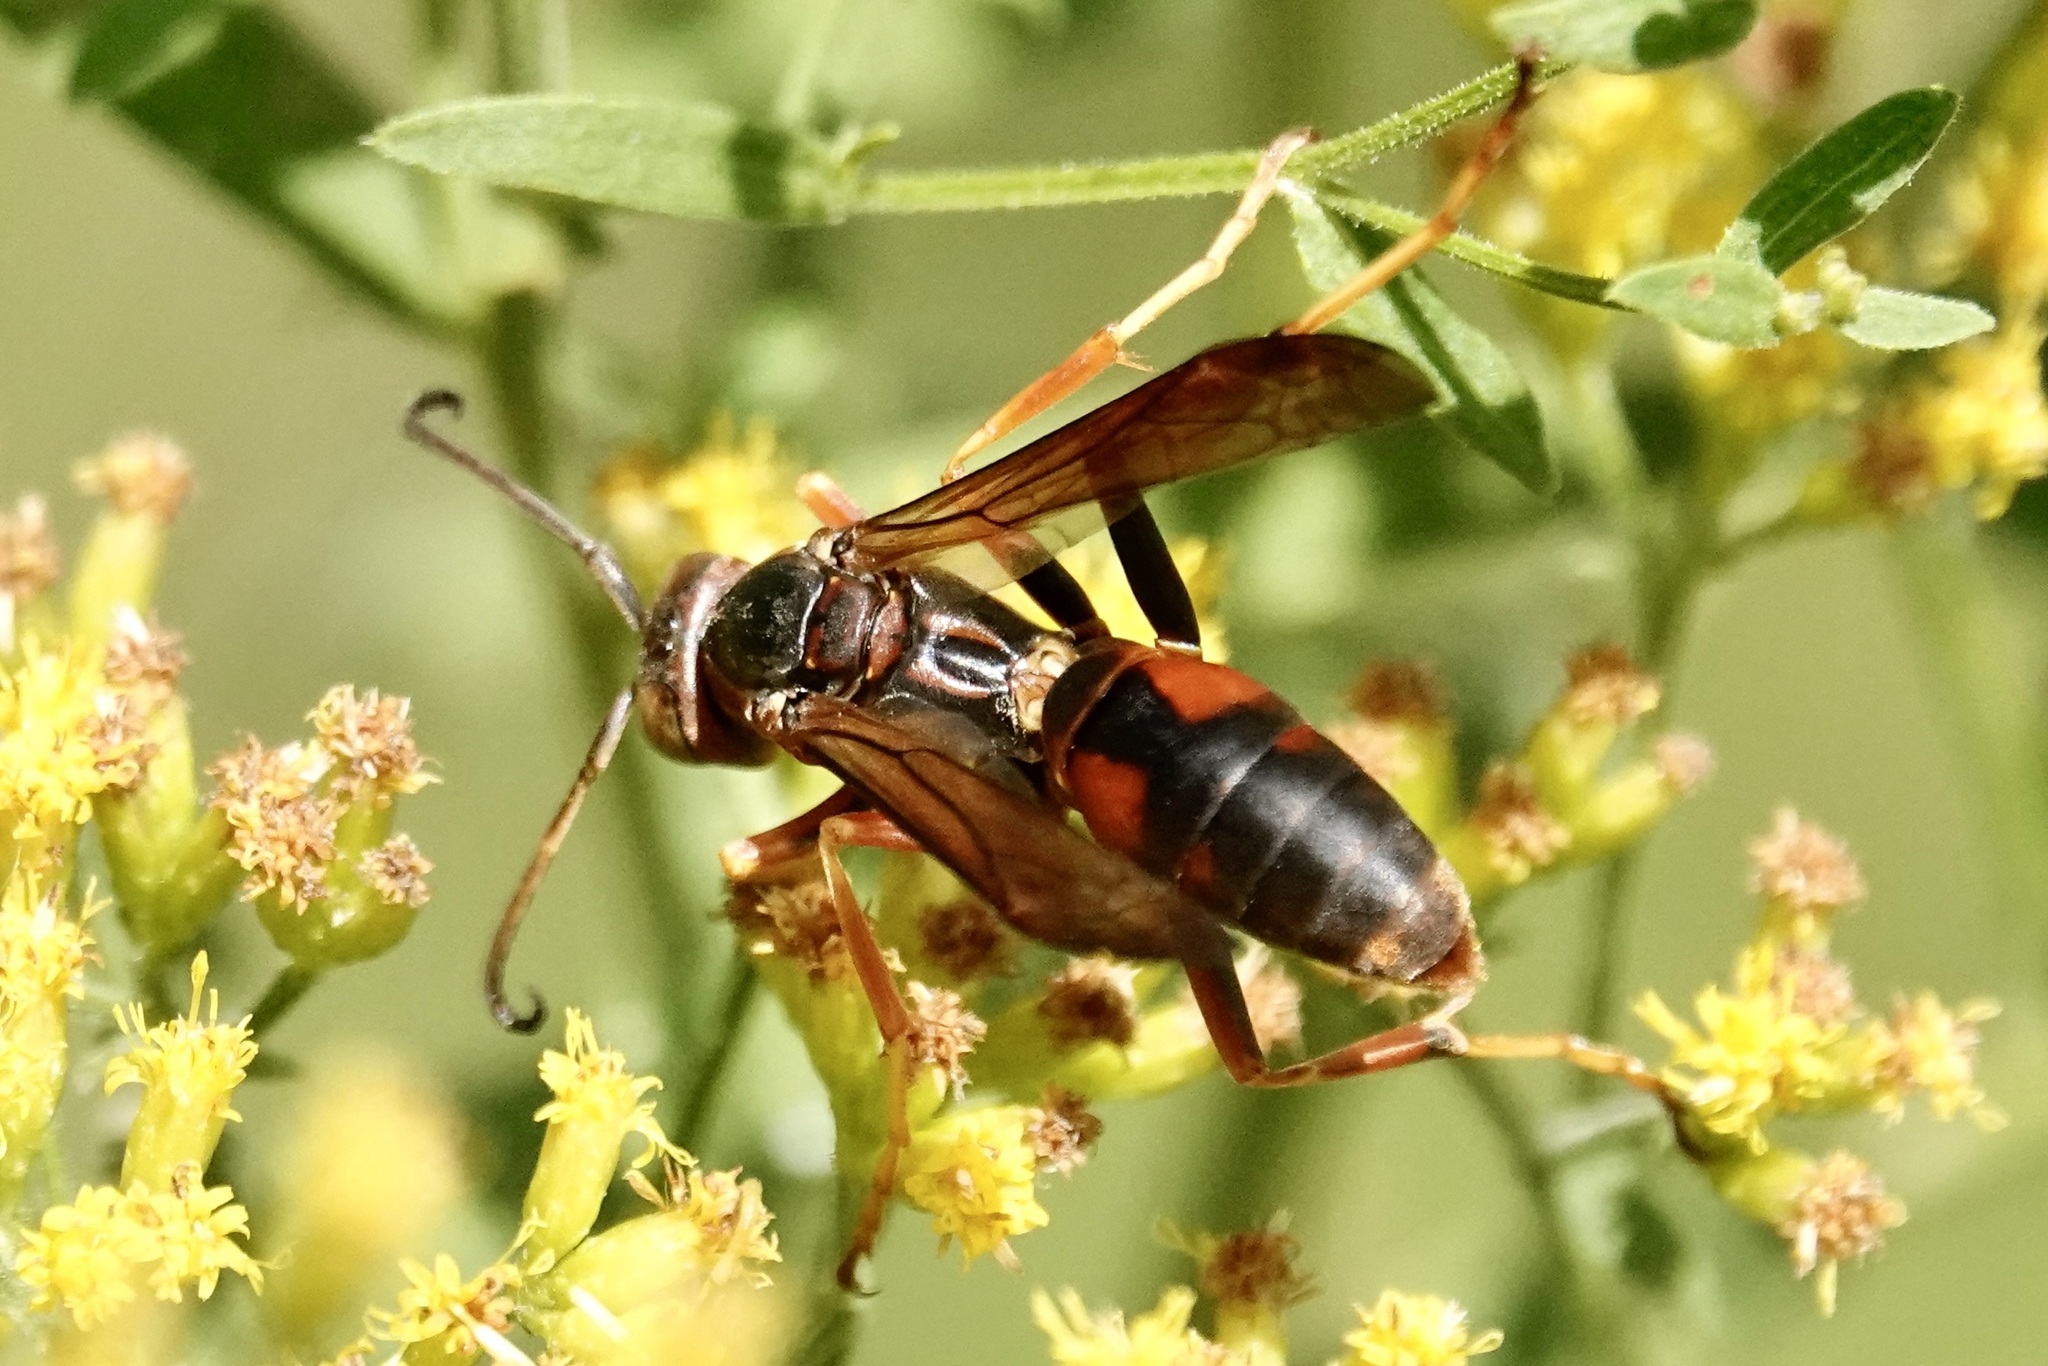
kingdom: Animalia
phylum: Arthropoda
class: Insecta
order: Hymenoptera
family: Eumenidae
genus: Polistes
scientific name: Polistes fuscatus
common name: Dark paper wasp
